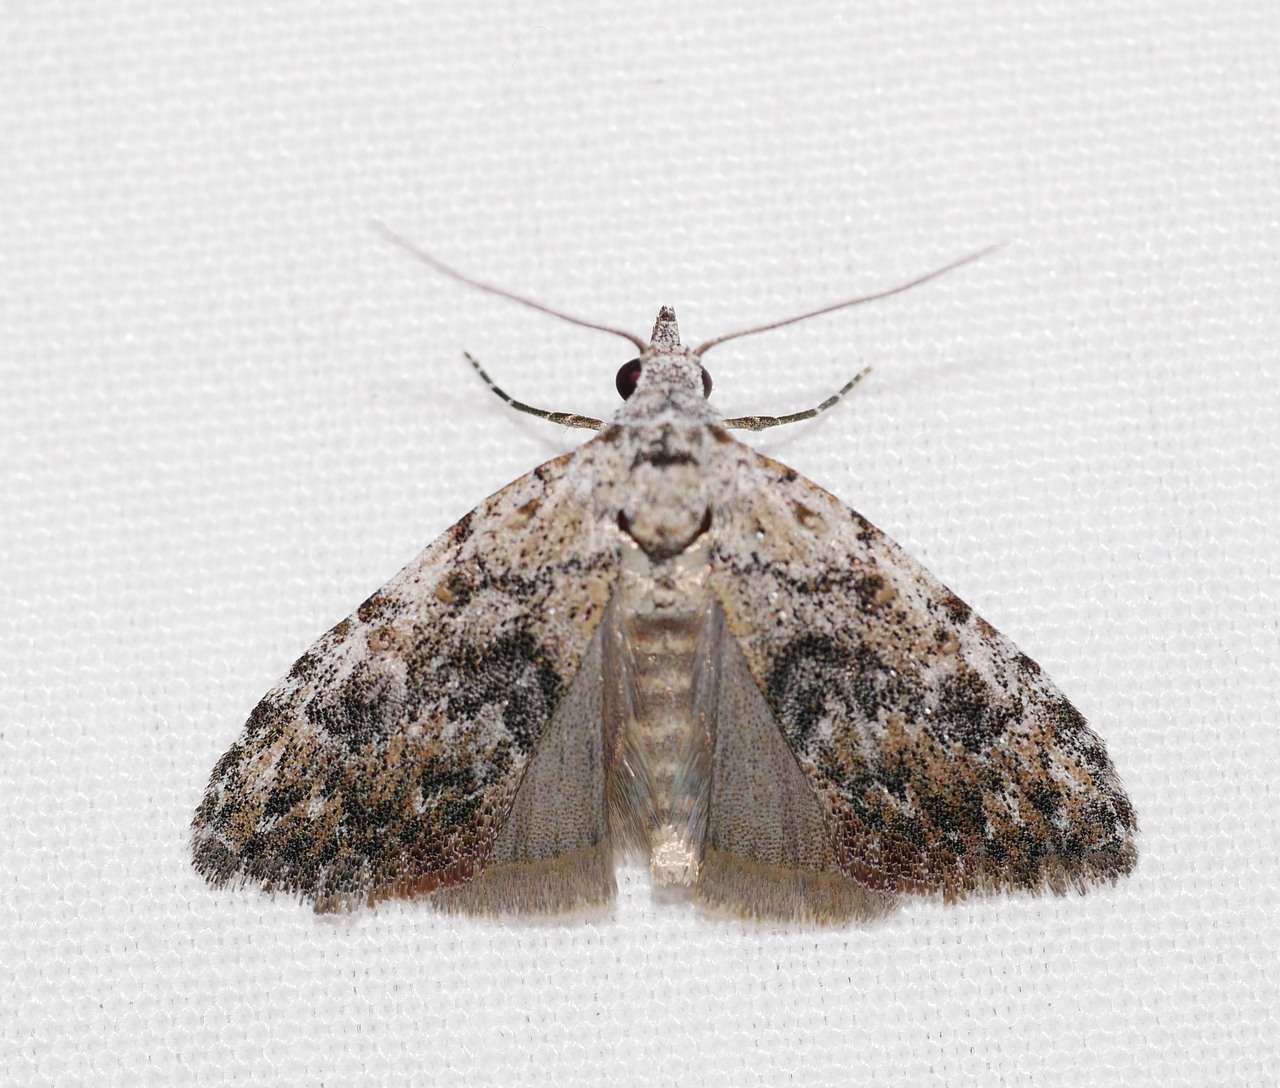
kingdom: Animalia
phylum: Arthropoda
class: Insecta
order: Lepidoptera
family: Nolidae
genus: Nola
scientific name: Nola pothina
